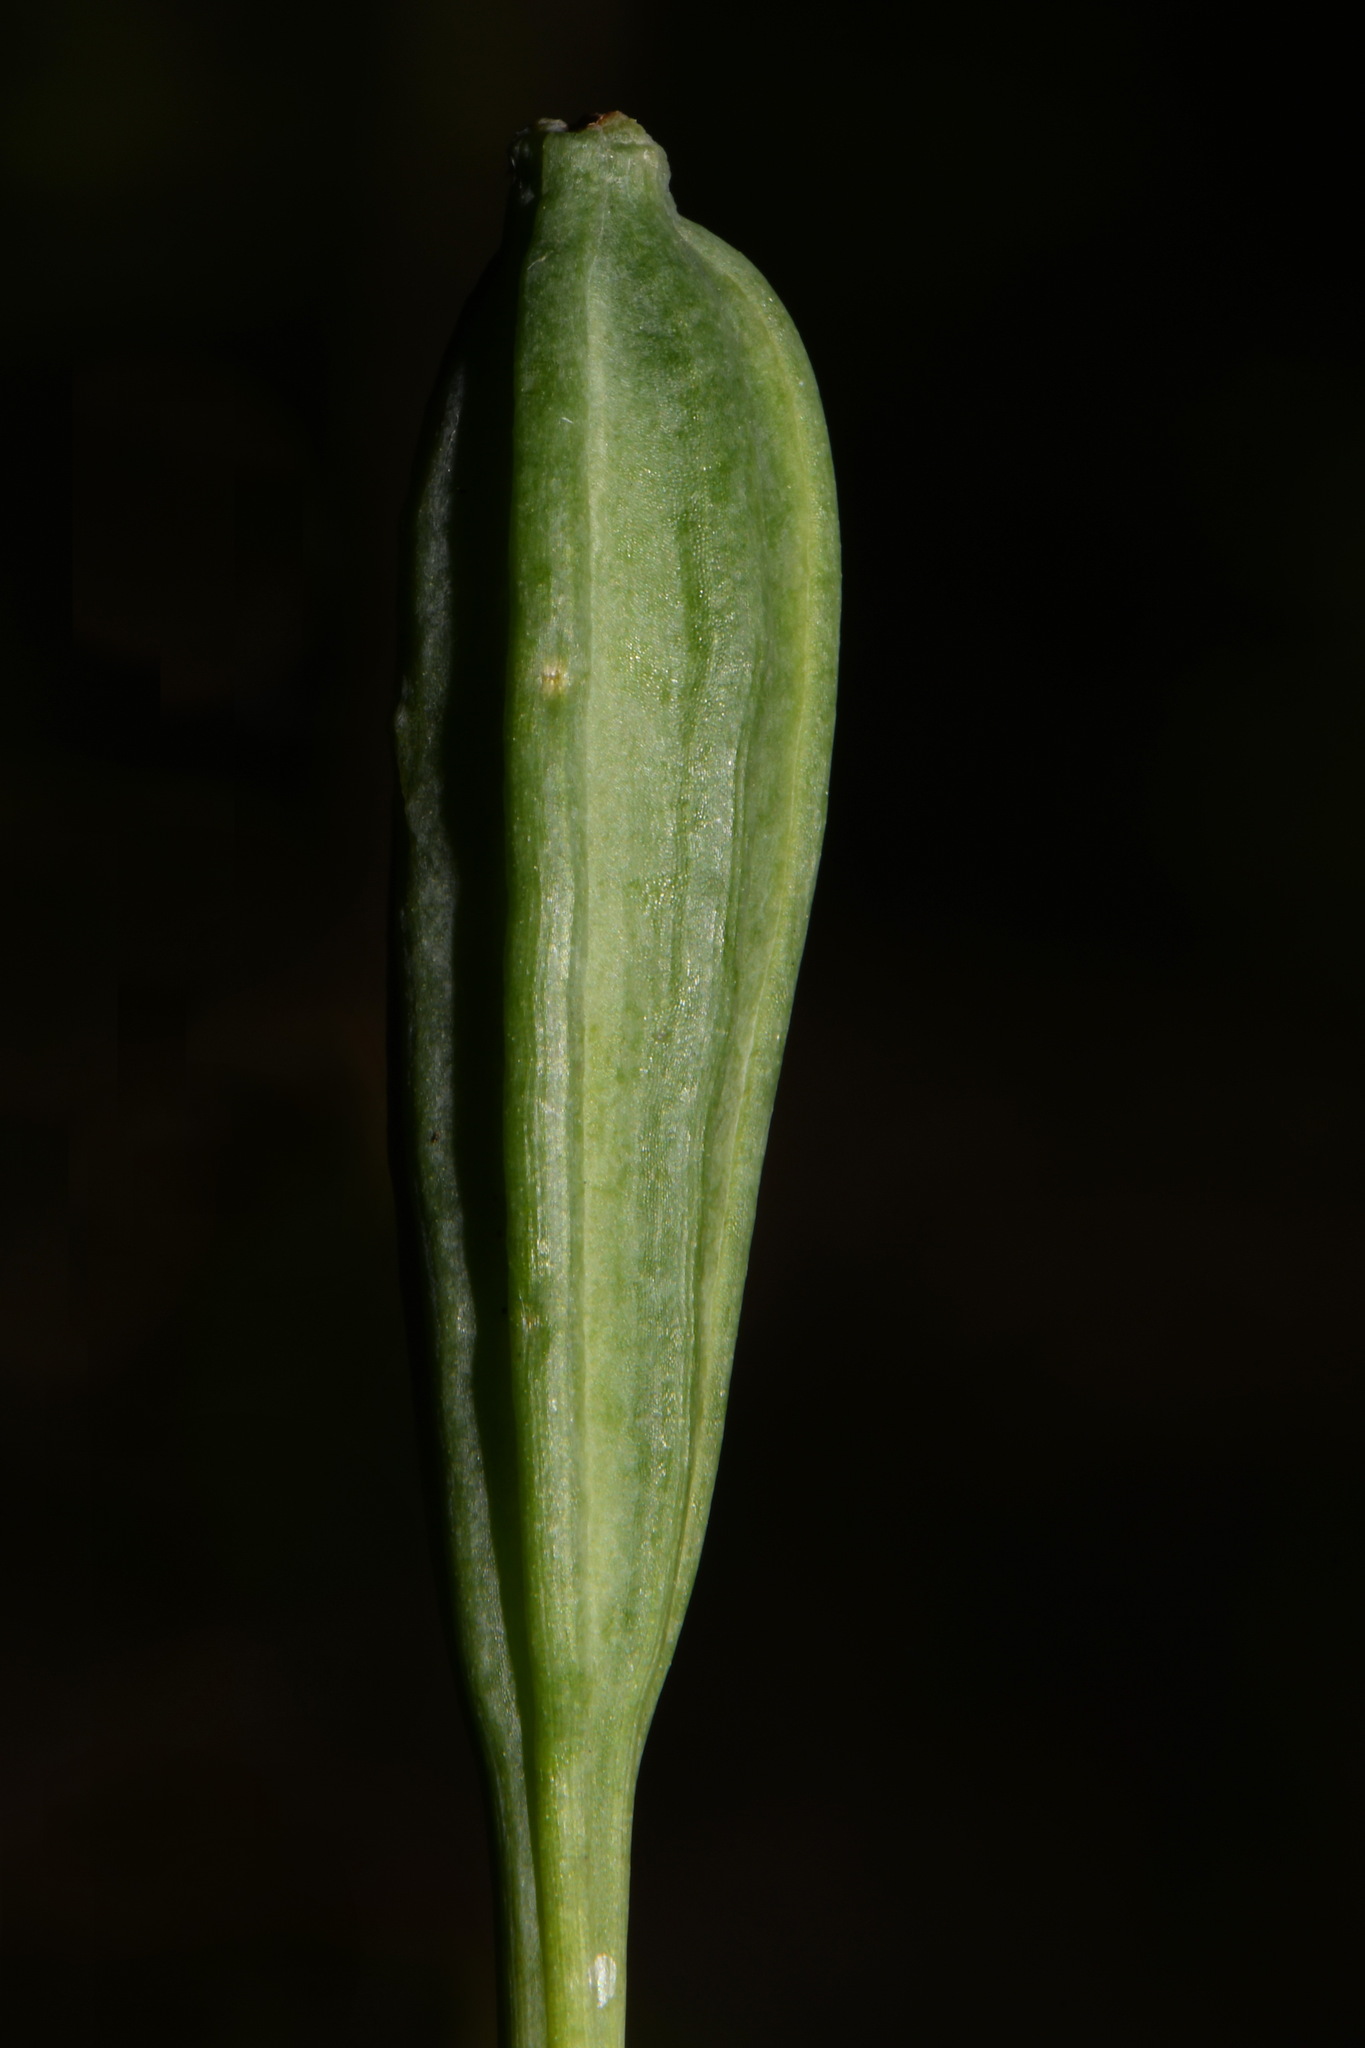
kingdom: Plantae
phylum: Tracheophyta
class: Liliopsida
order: Asparagales
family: Orchidaceae
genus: Isotria
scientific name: Isotria verticillata
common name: Large whorled pogonia
